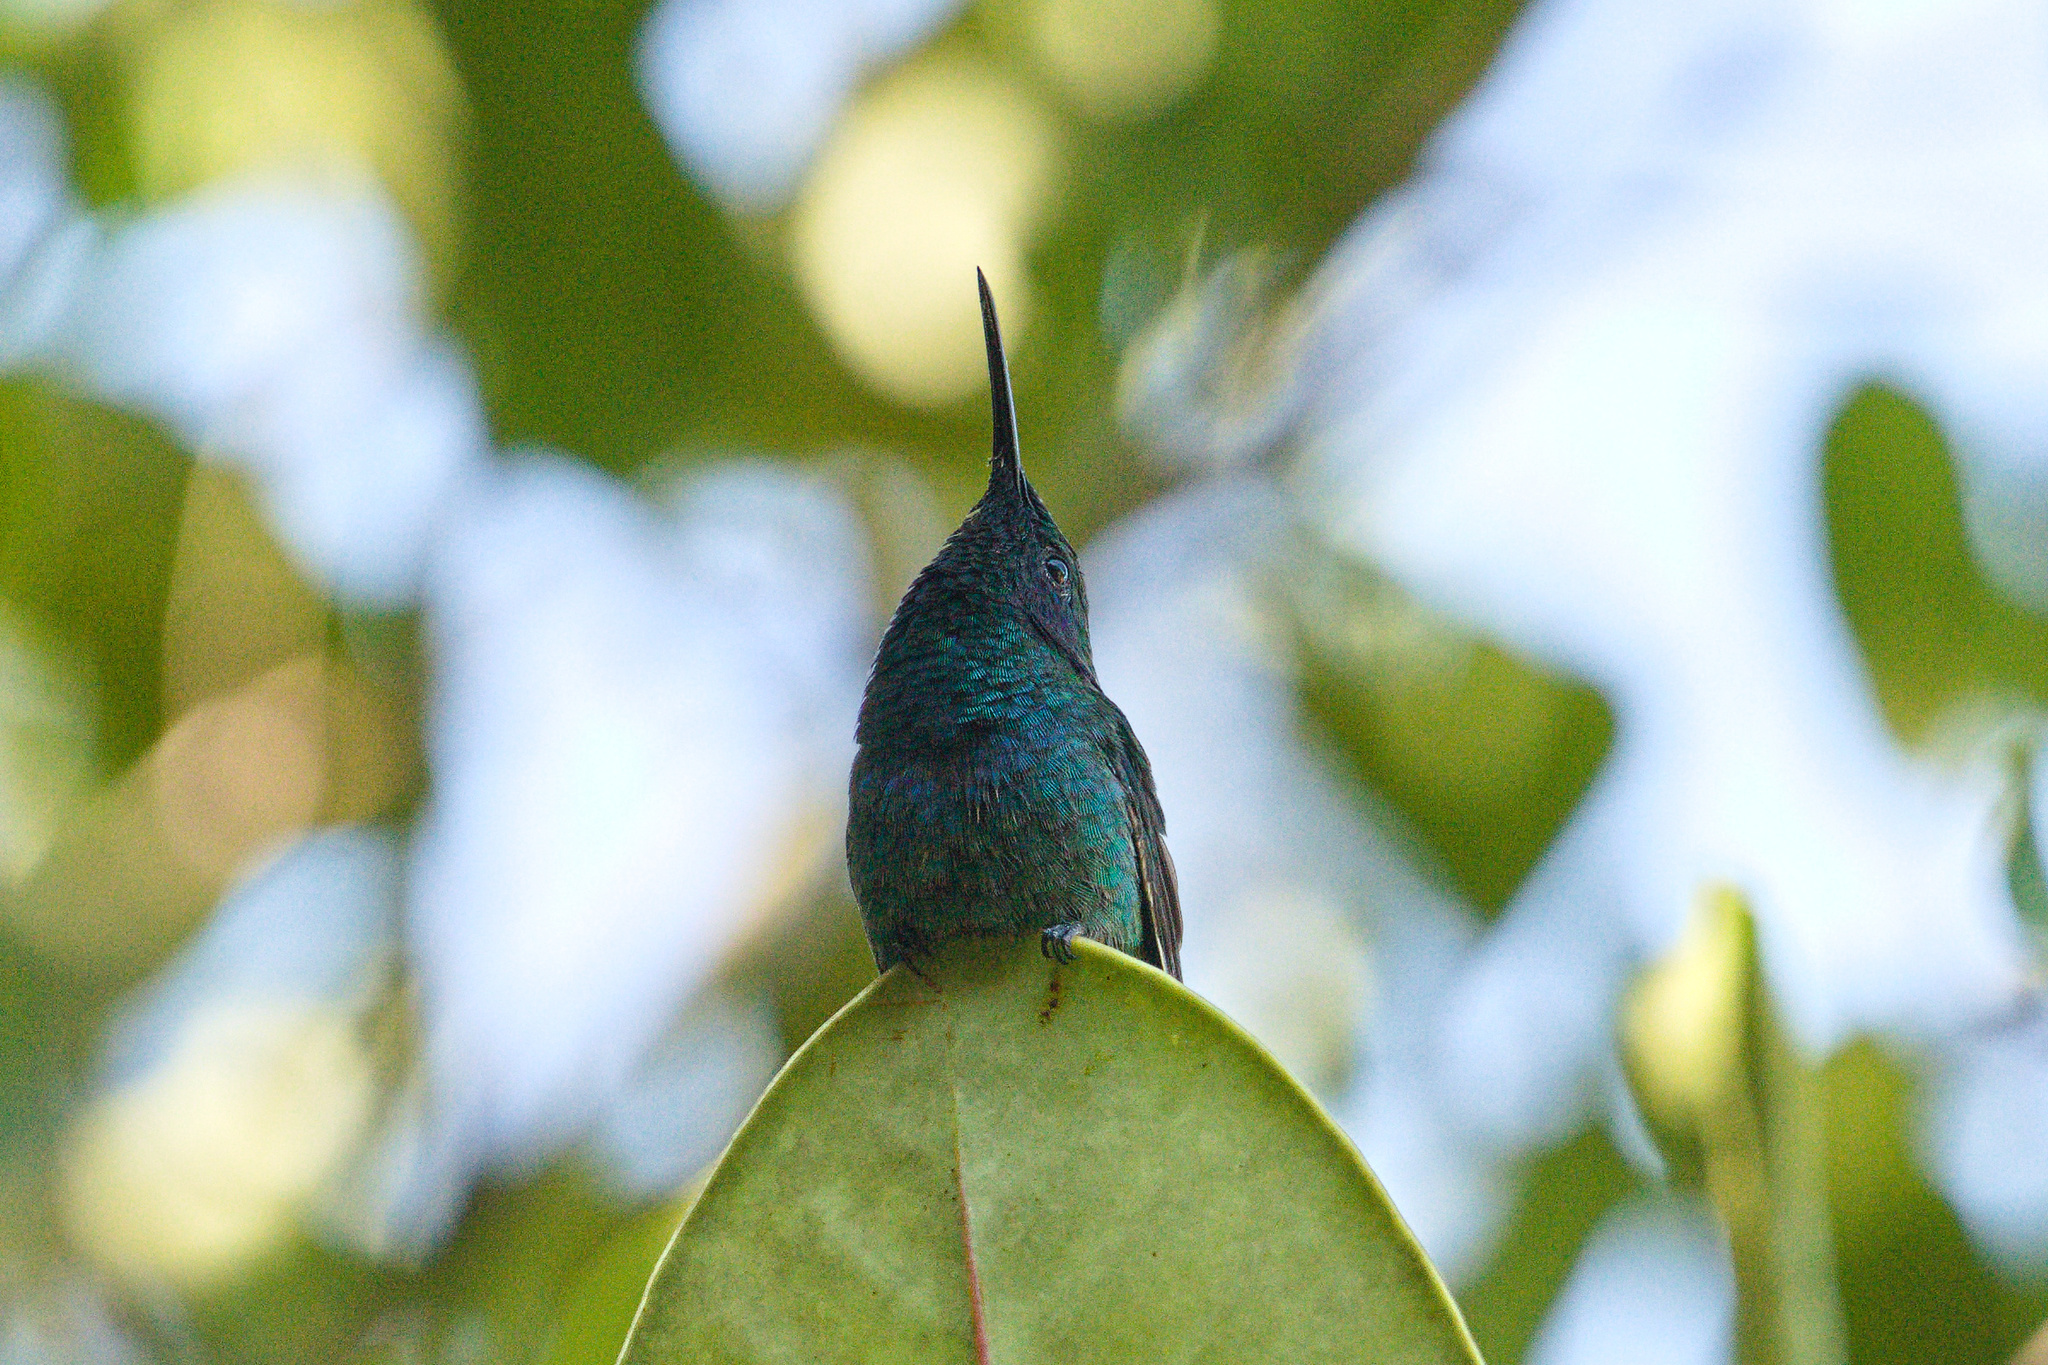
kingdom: Animalia
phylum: Chordata
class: Aves
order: Apodiformes
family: Trochilidae
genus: Colibri
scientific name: Colibri cyanotus
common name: Lesser violetear
